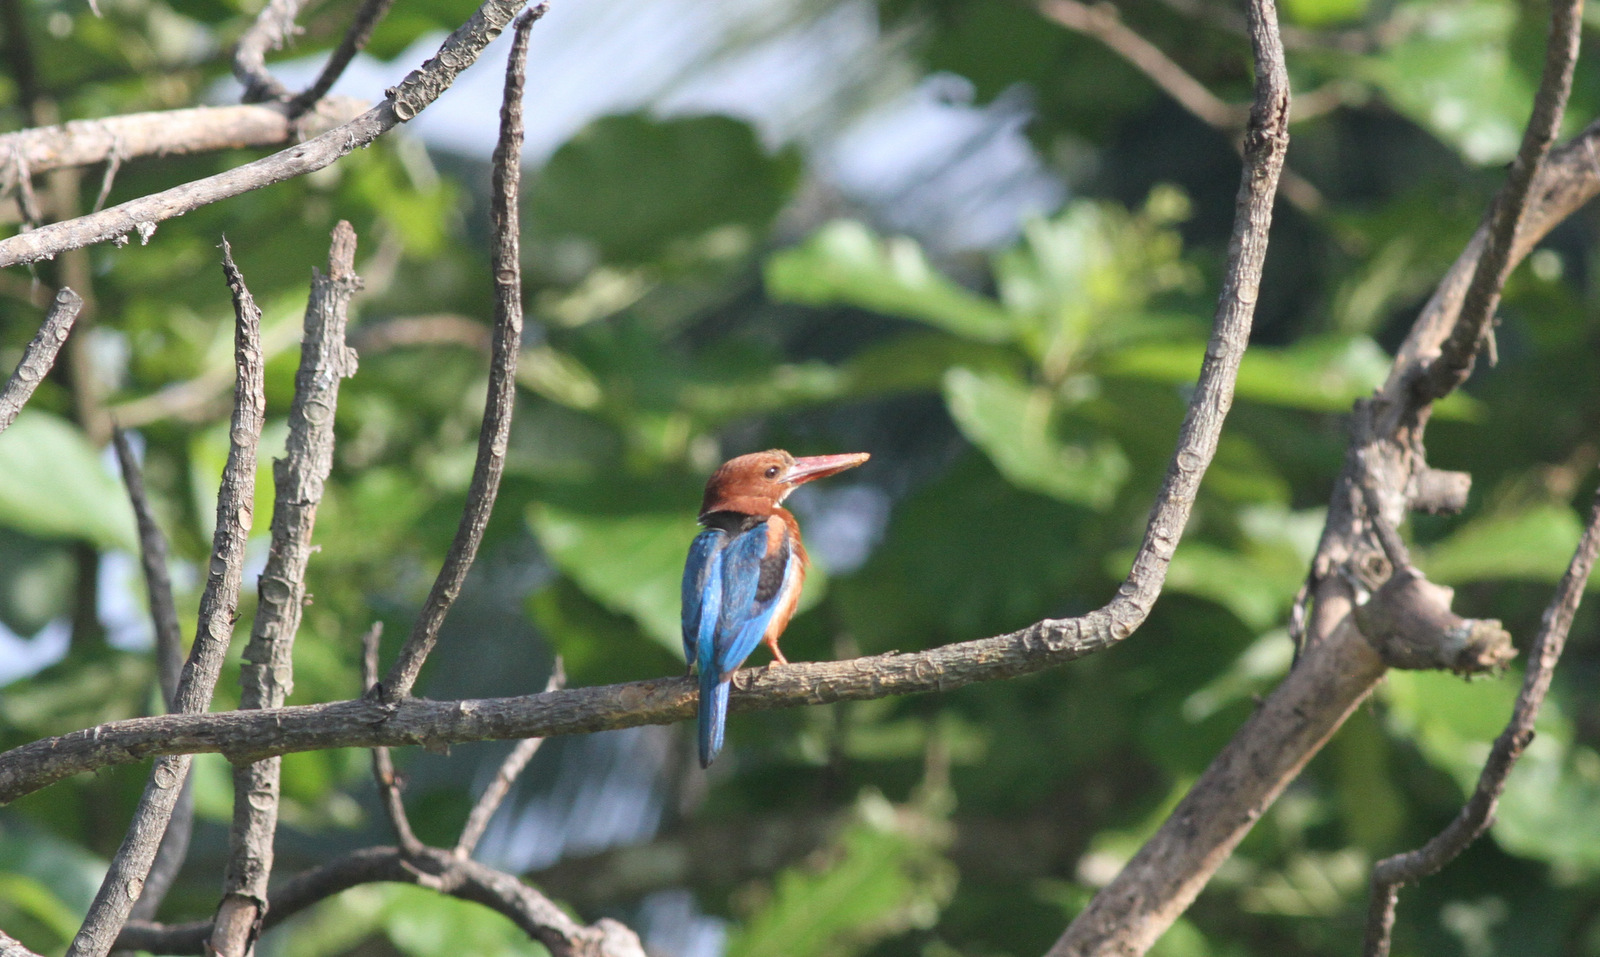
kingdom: Animalia
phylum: Chordata
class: Aves
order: Coraciiformes
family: Alcedinidae
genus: Halcyon
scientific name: Halcyon smyrnensis
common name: White-throated kingfisher
